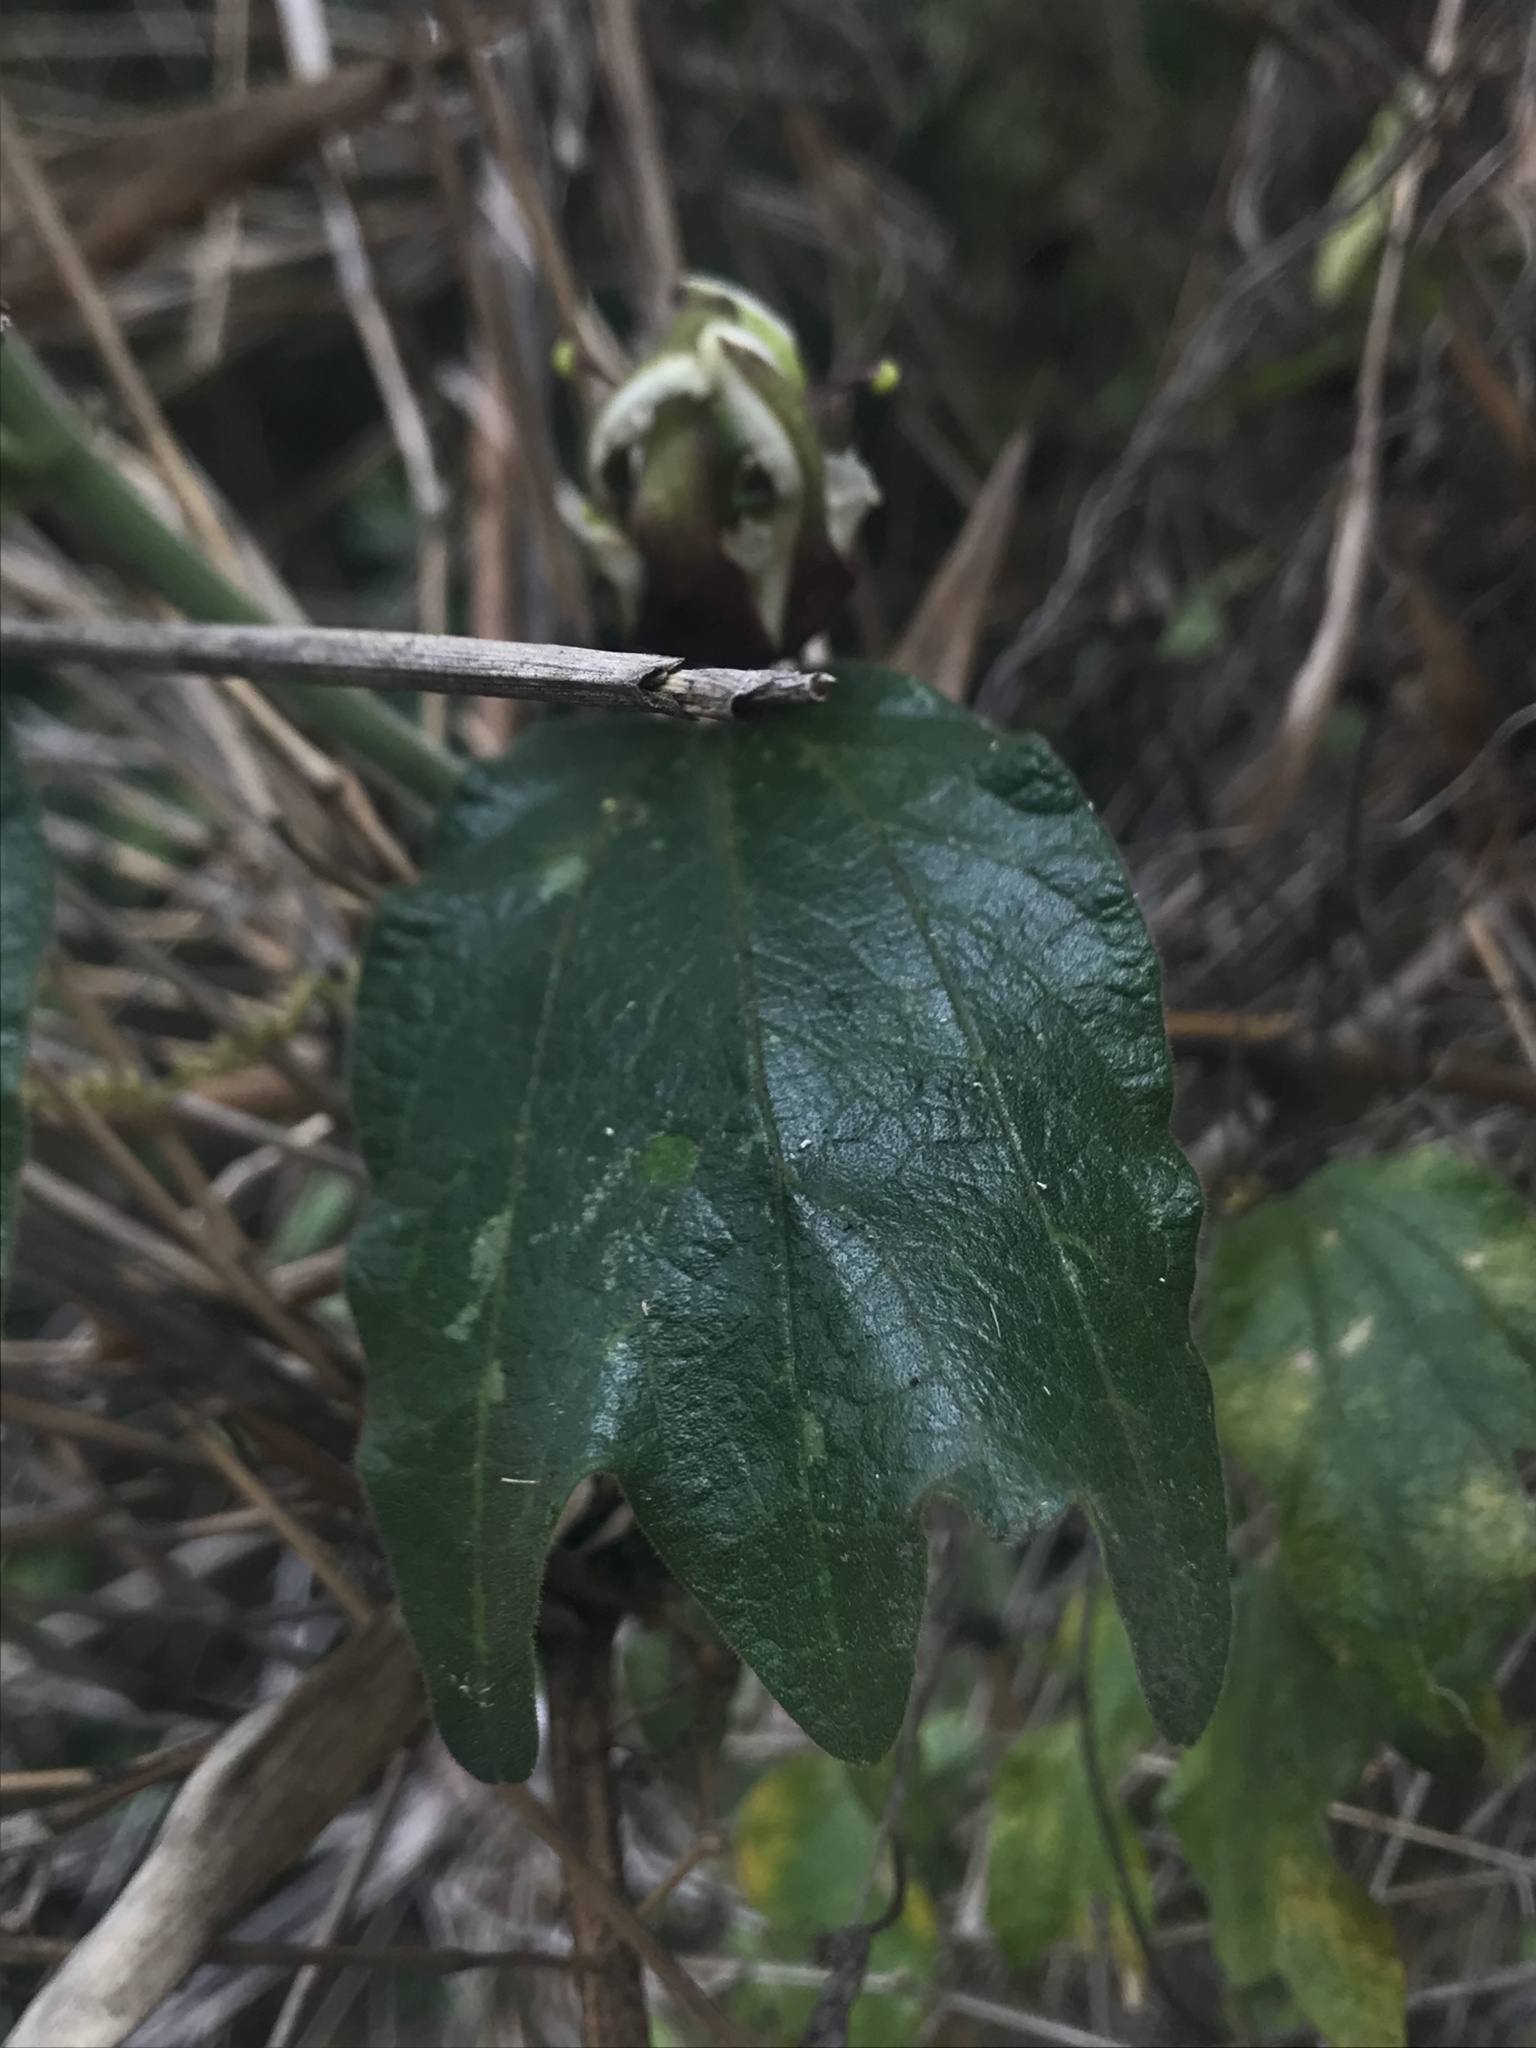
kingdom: Plantae
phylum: Tracheophyta
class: Magnoliopsida
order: Malpighiales
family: Passifloraceae
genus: Passiflora
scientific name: Passiflora bogotensis
